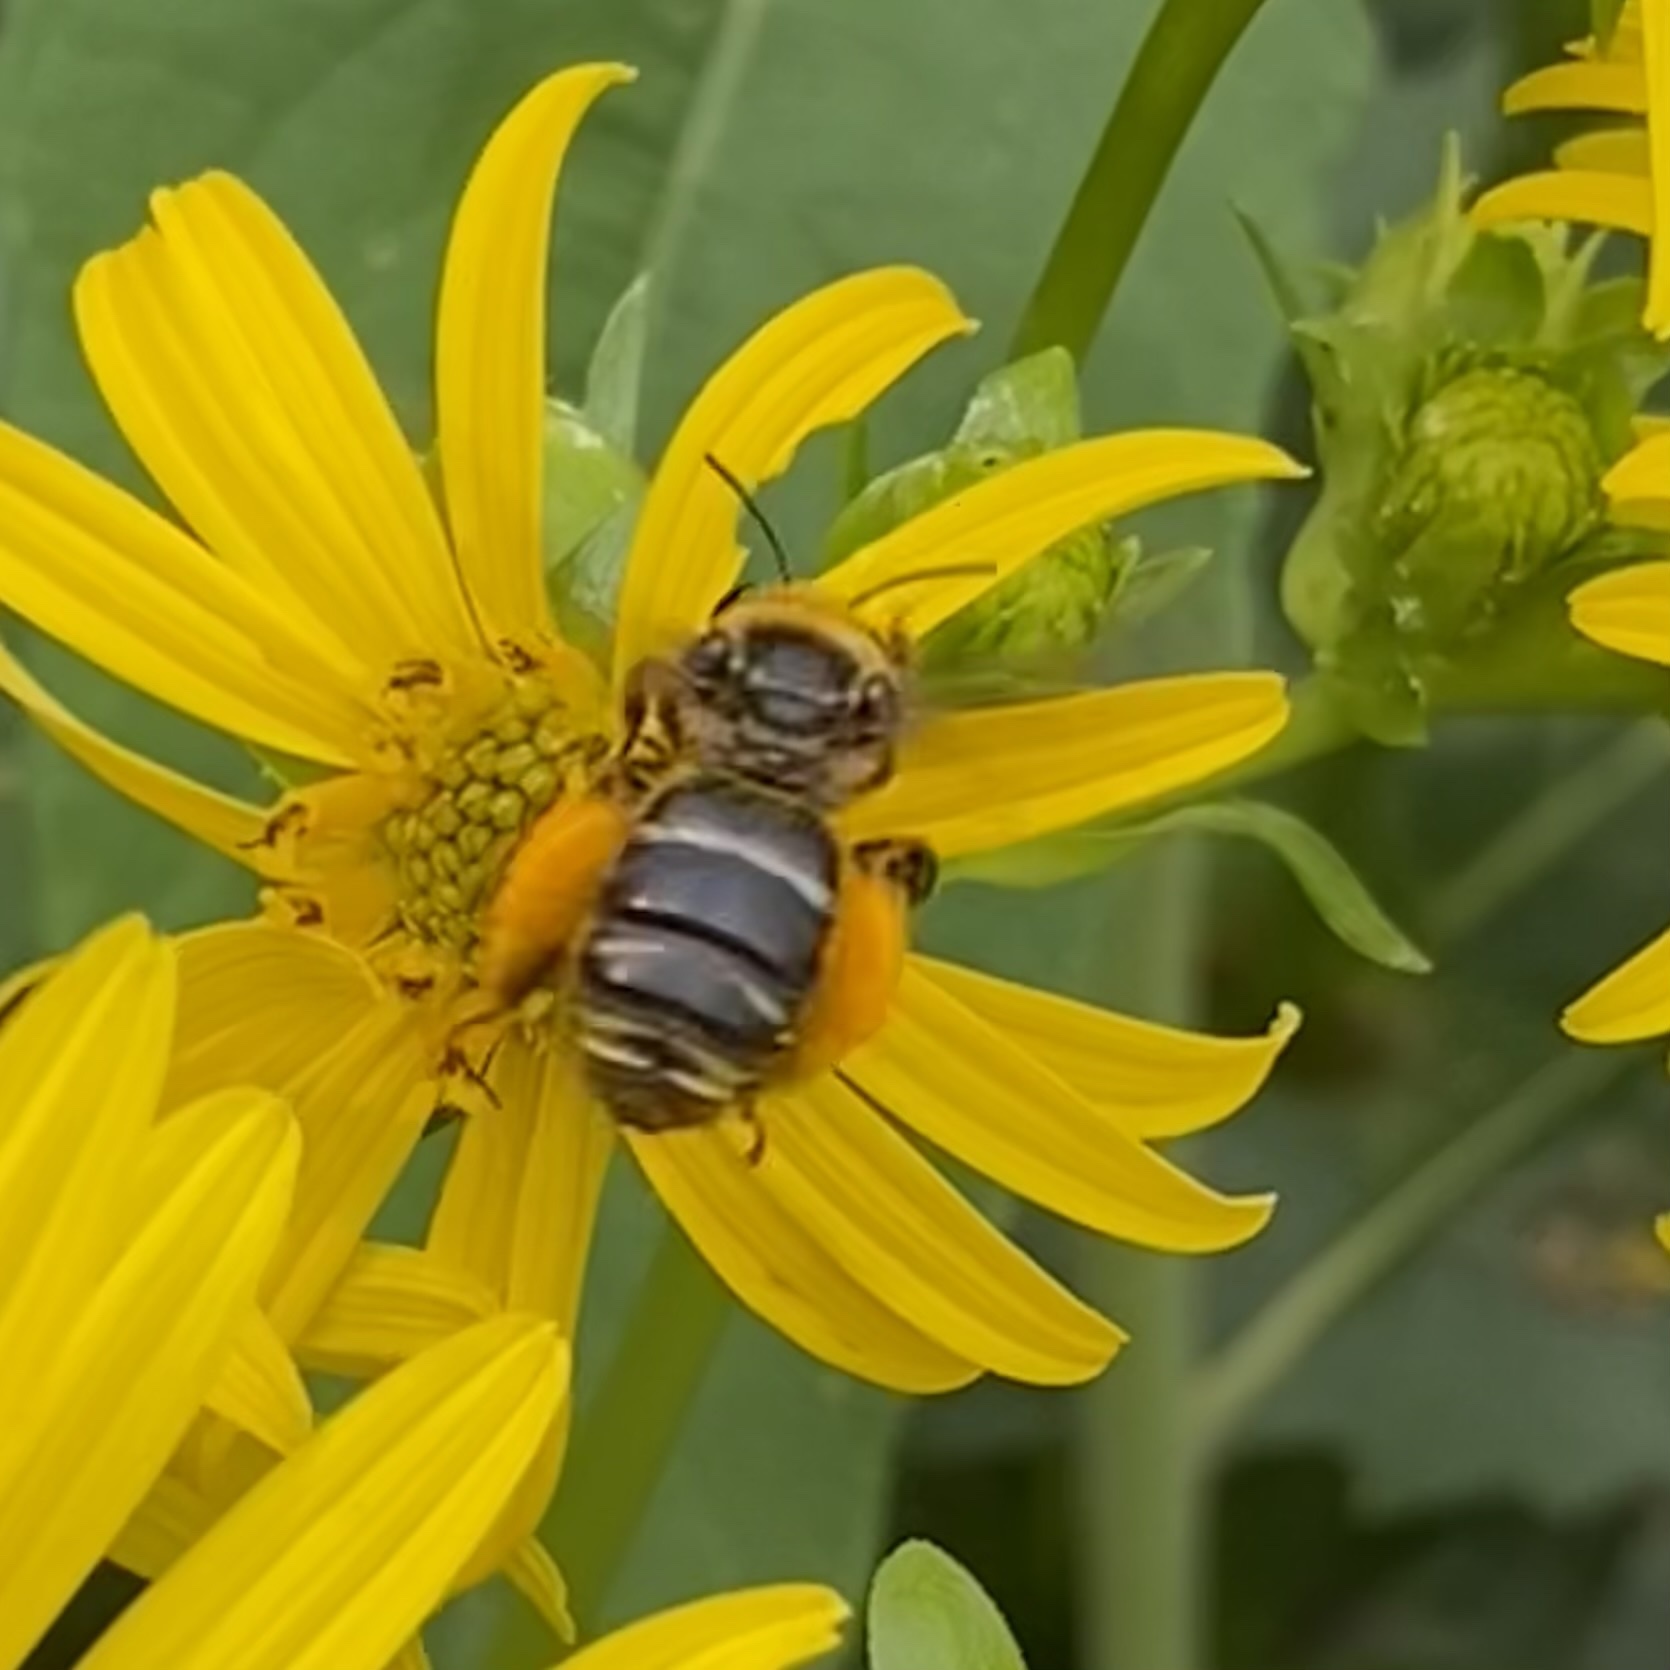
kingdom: Animalia
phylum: Arthropoda
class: Insecta
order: Hymenoptera
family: Apidae
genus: Svastra
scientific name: Svastra obliqua
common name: Oblique longhorn
